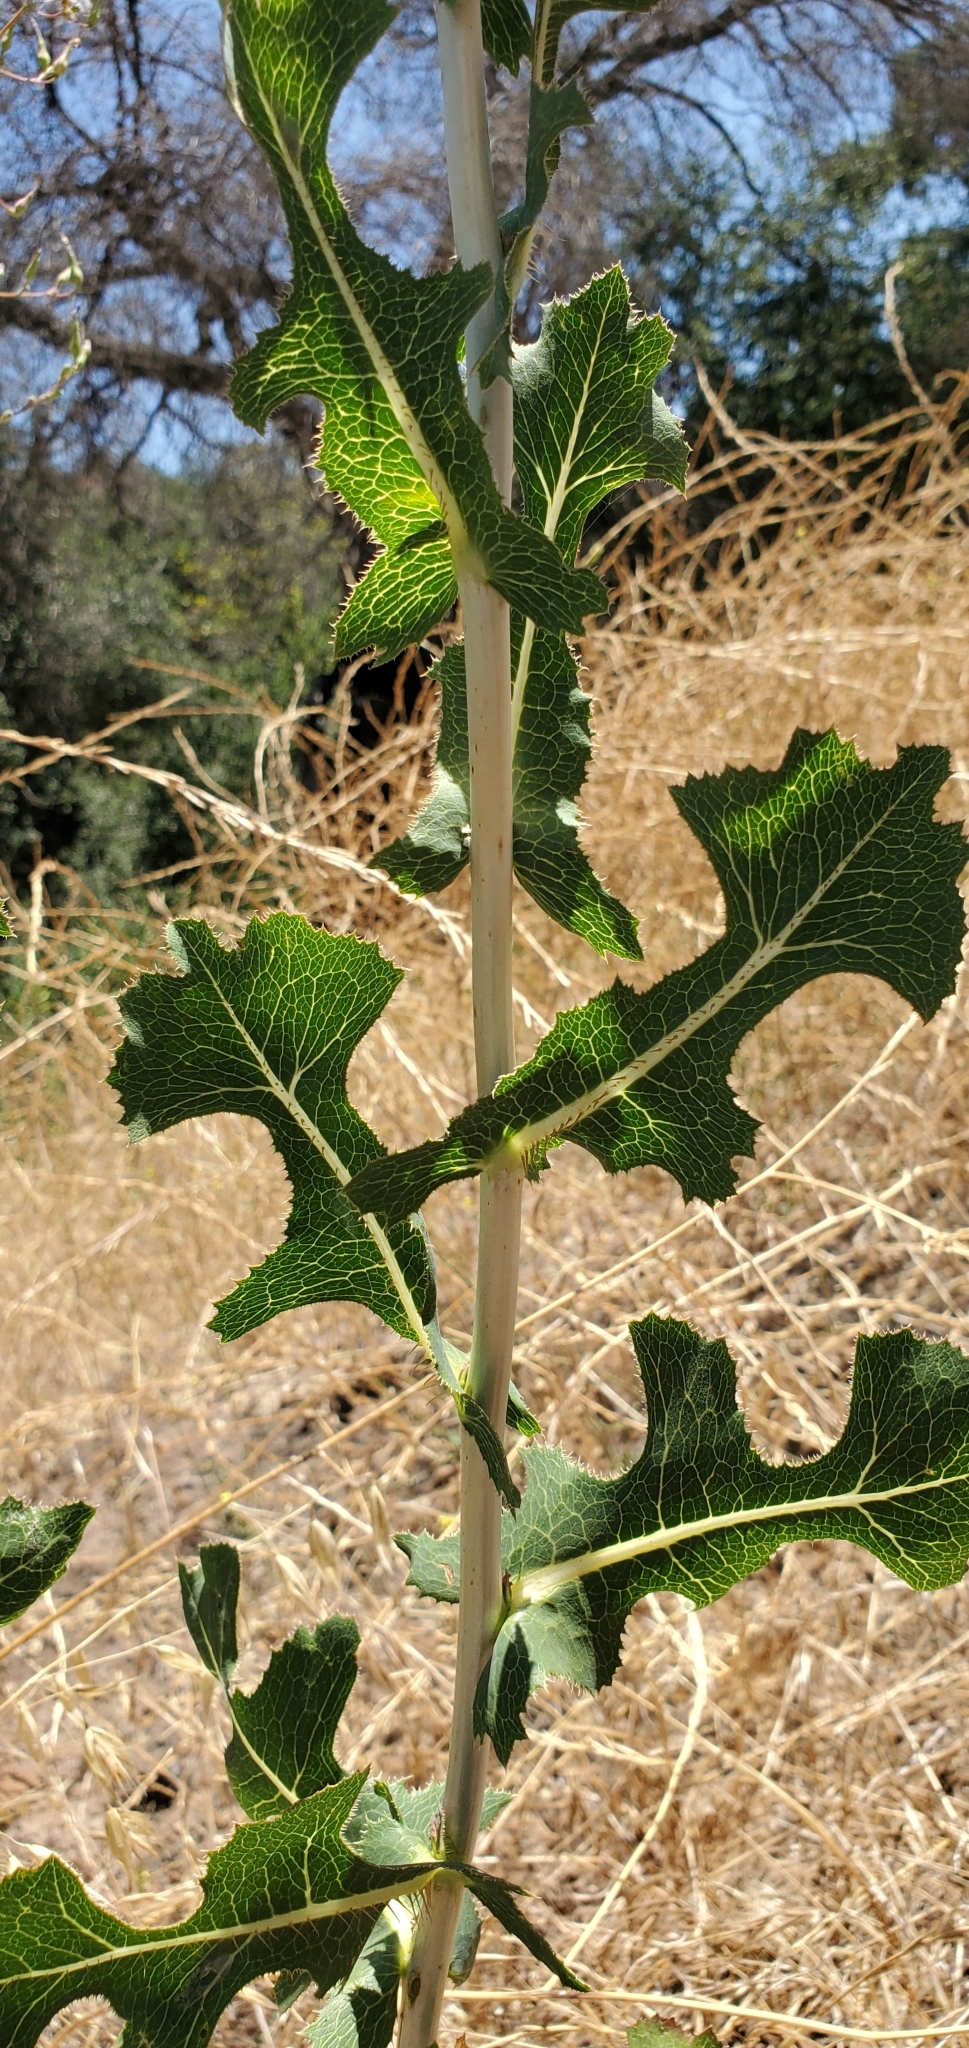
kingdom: Plantae
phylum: Tracheophyta
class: Magnoliopsida
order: Asterales
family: Asteraceae
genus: Lactuca
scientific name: Lactuca serriola
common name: Prickly lettuce
